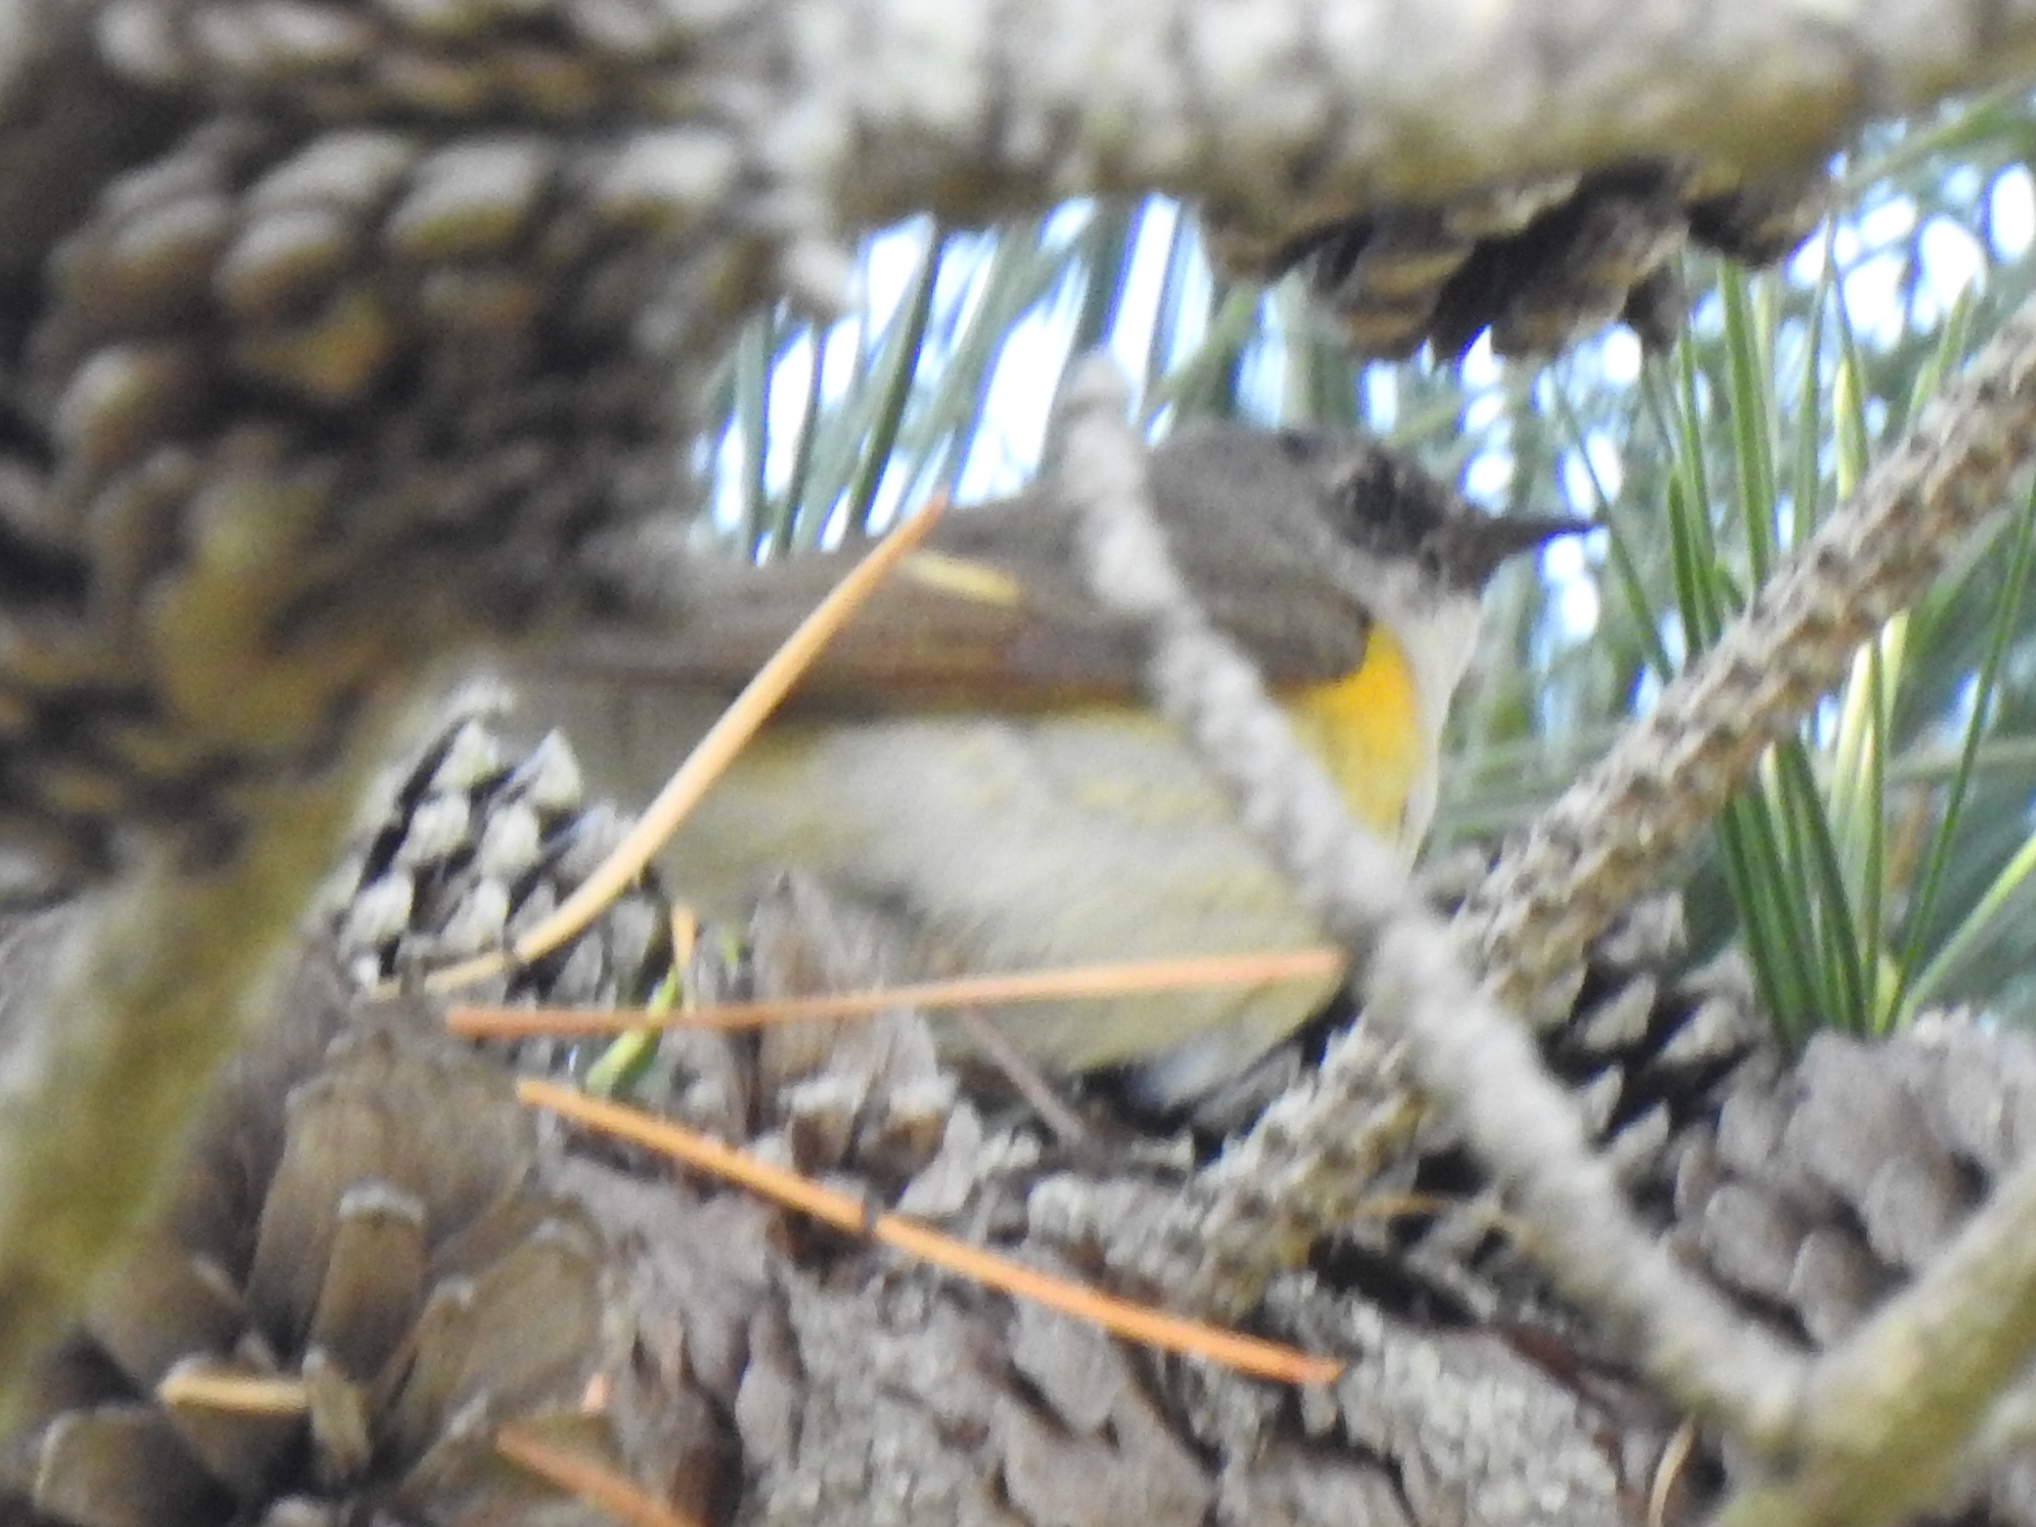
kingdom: Animalia
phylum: Chordata
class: Aves
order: Passeriformes
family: Parulidae
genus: Setophaga
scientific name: Setophaga ruticilla
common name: American redstart
